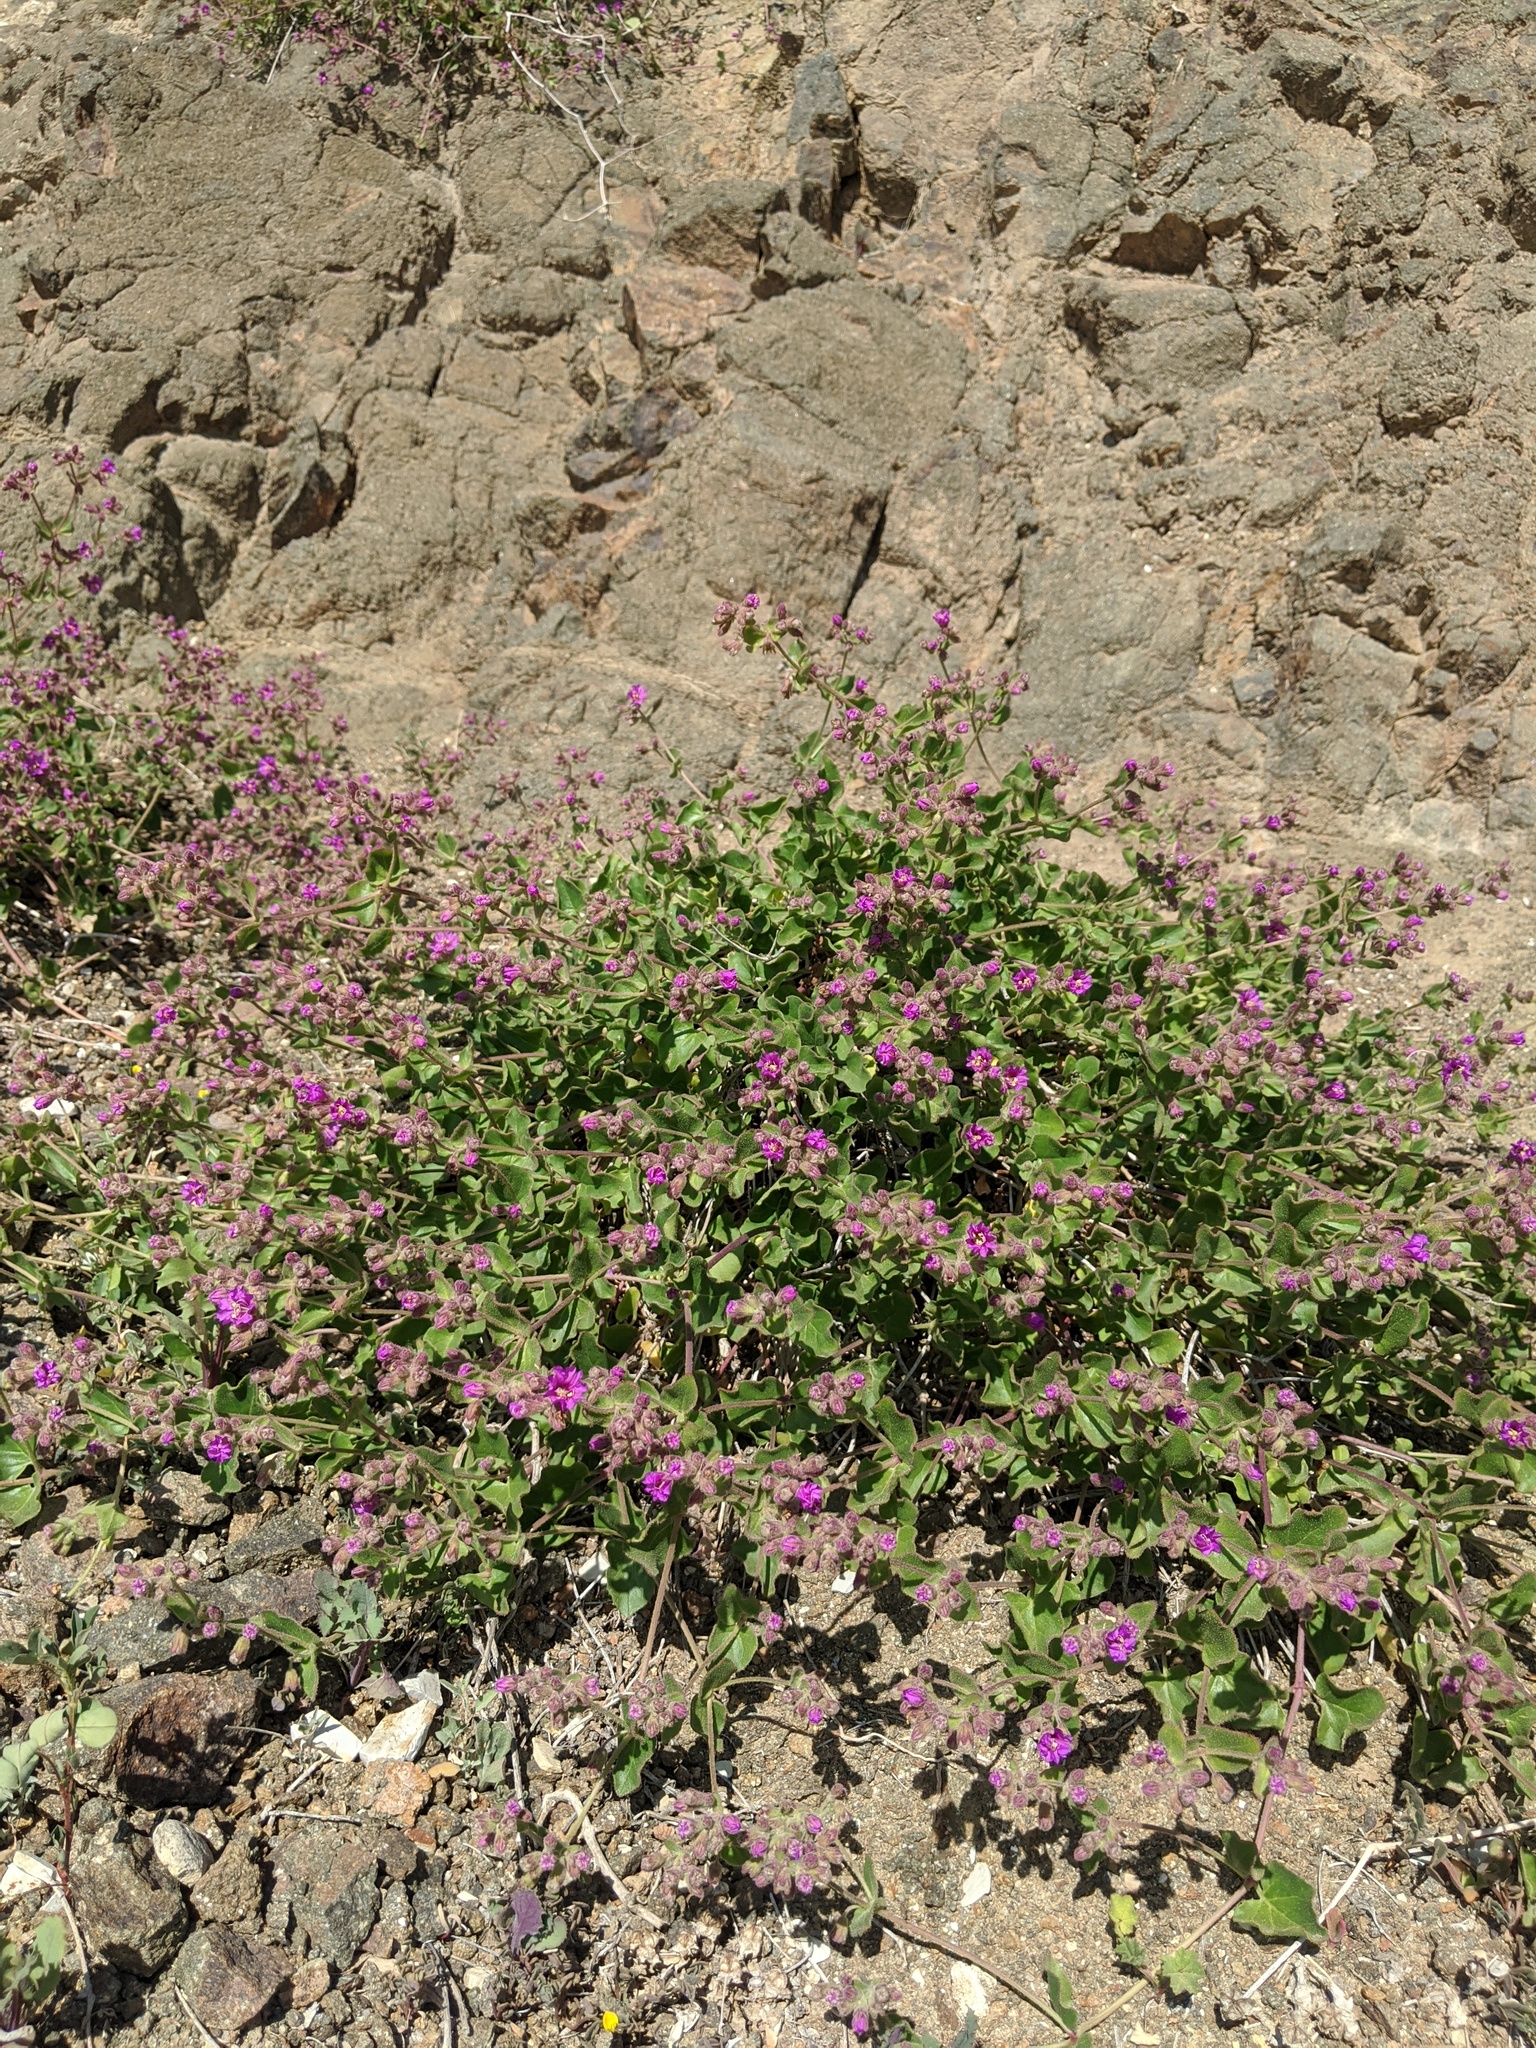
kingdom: Plantae
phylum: Tracheophyta
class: Magnoliopsida
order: Caryophyllales
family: Nyctaginaceae
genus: Mirabilis
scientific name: Mirabilis laevis
